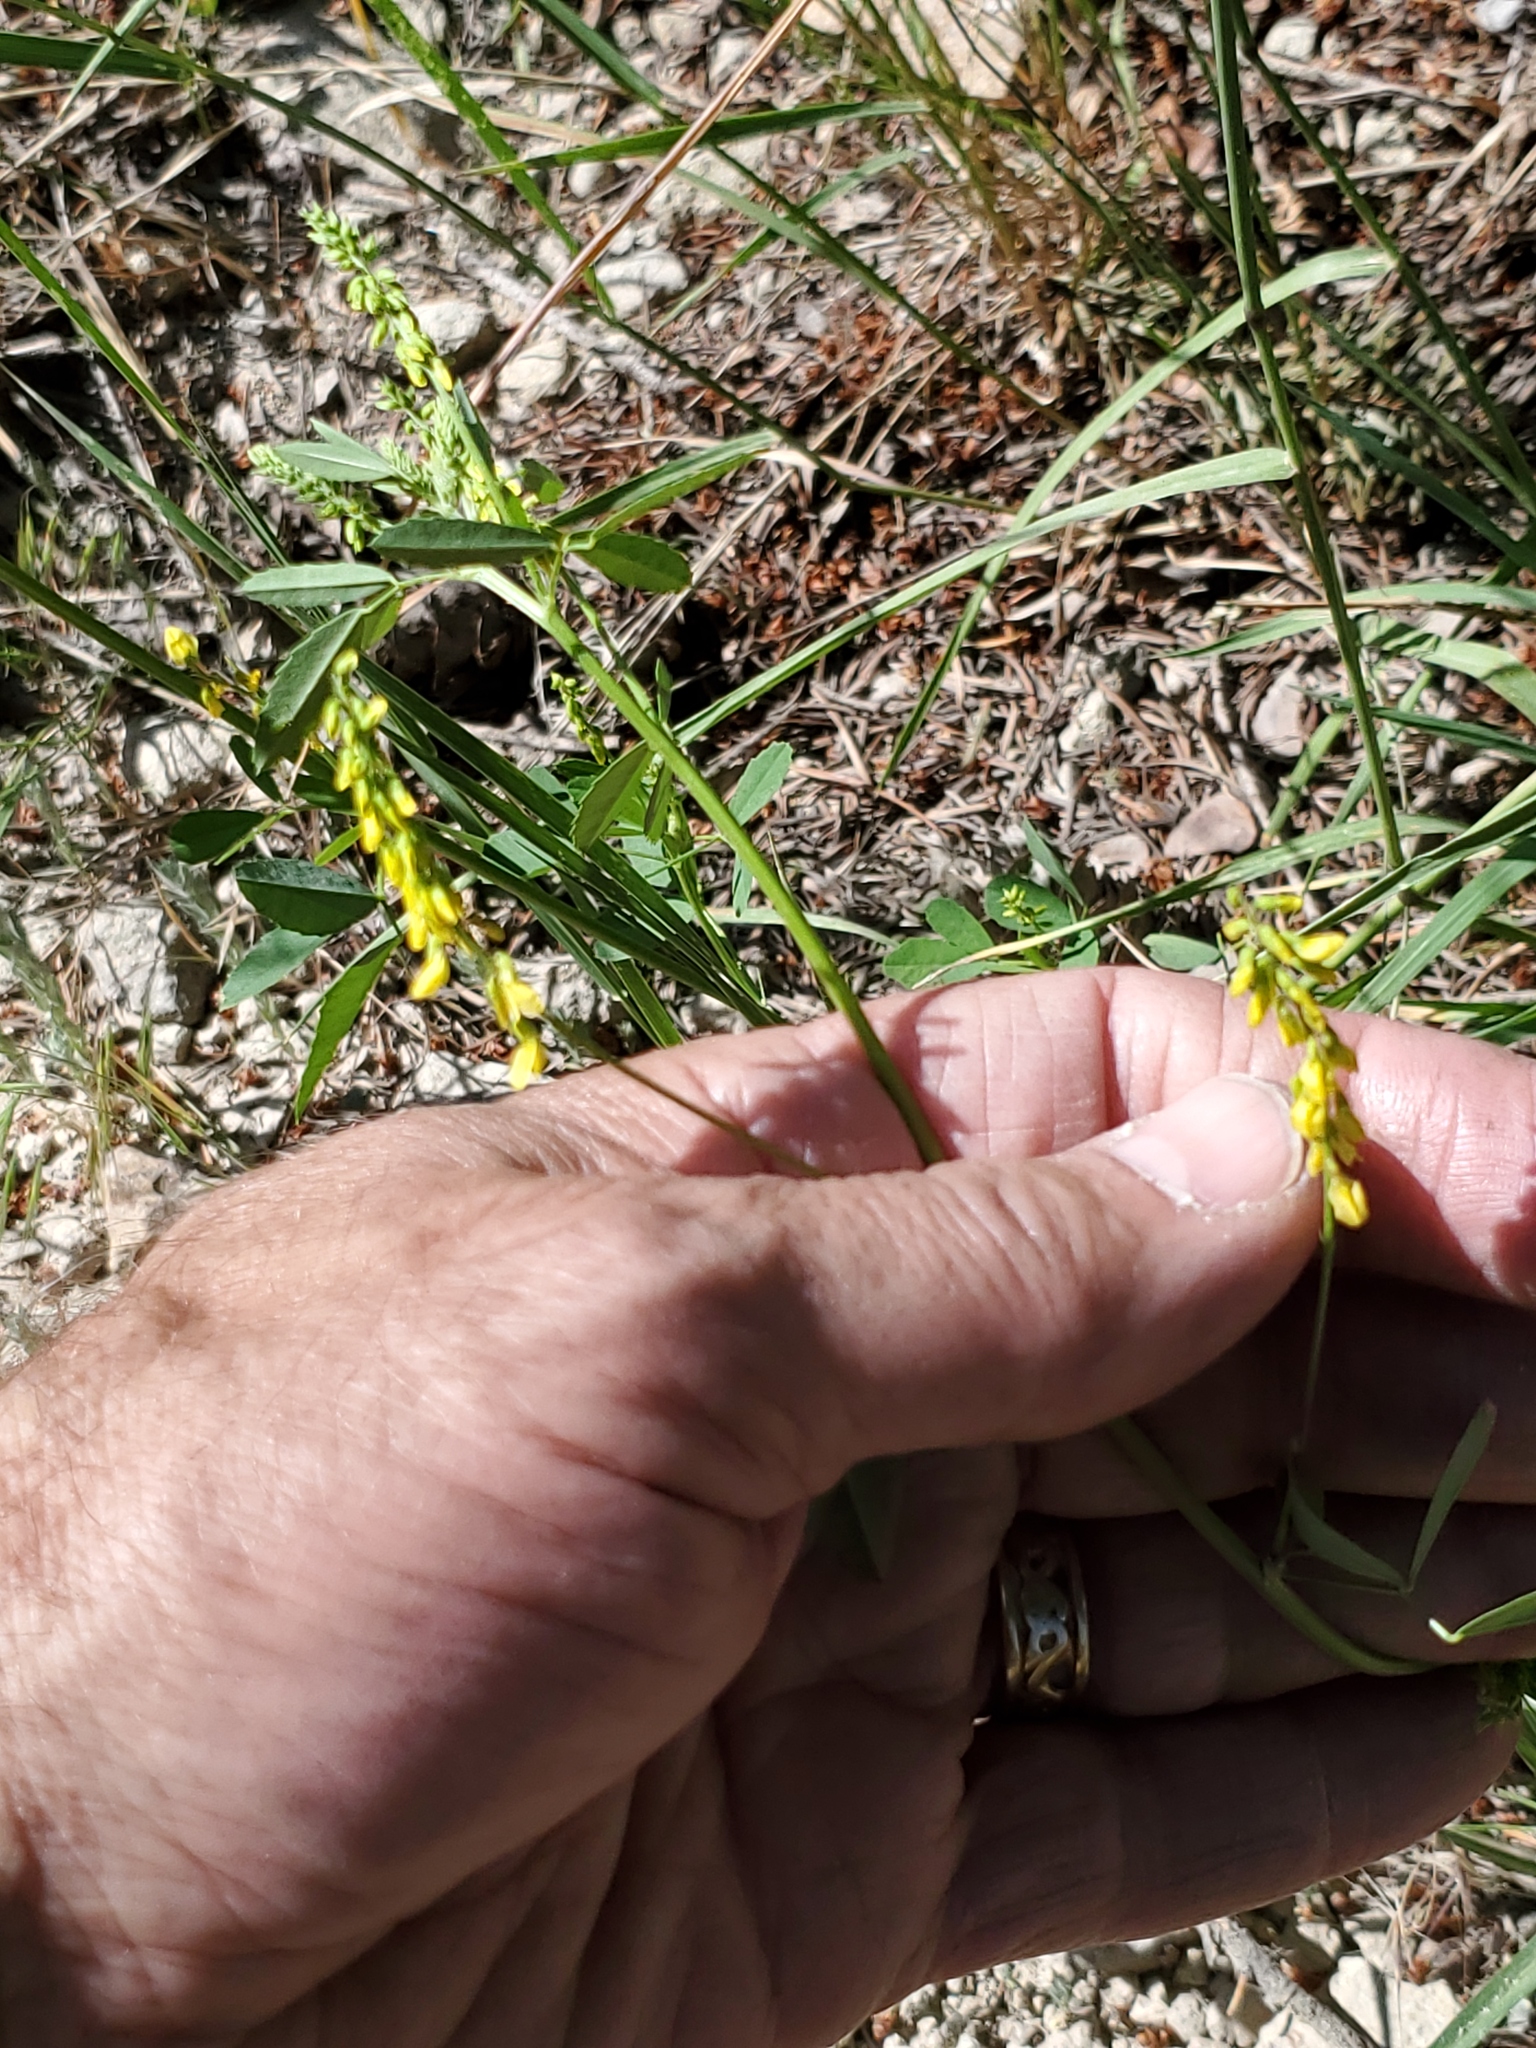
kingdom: Plantae
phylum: Tracheophyta
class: Magnoliopsida
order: Fabales
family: Fabaceae
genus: Melilotus
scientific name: Melilotus officinalis
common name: Sweetclover
